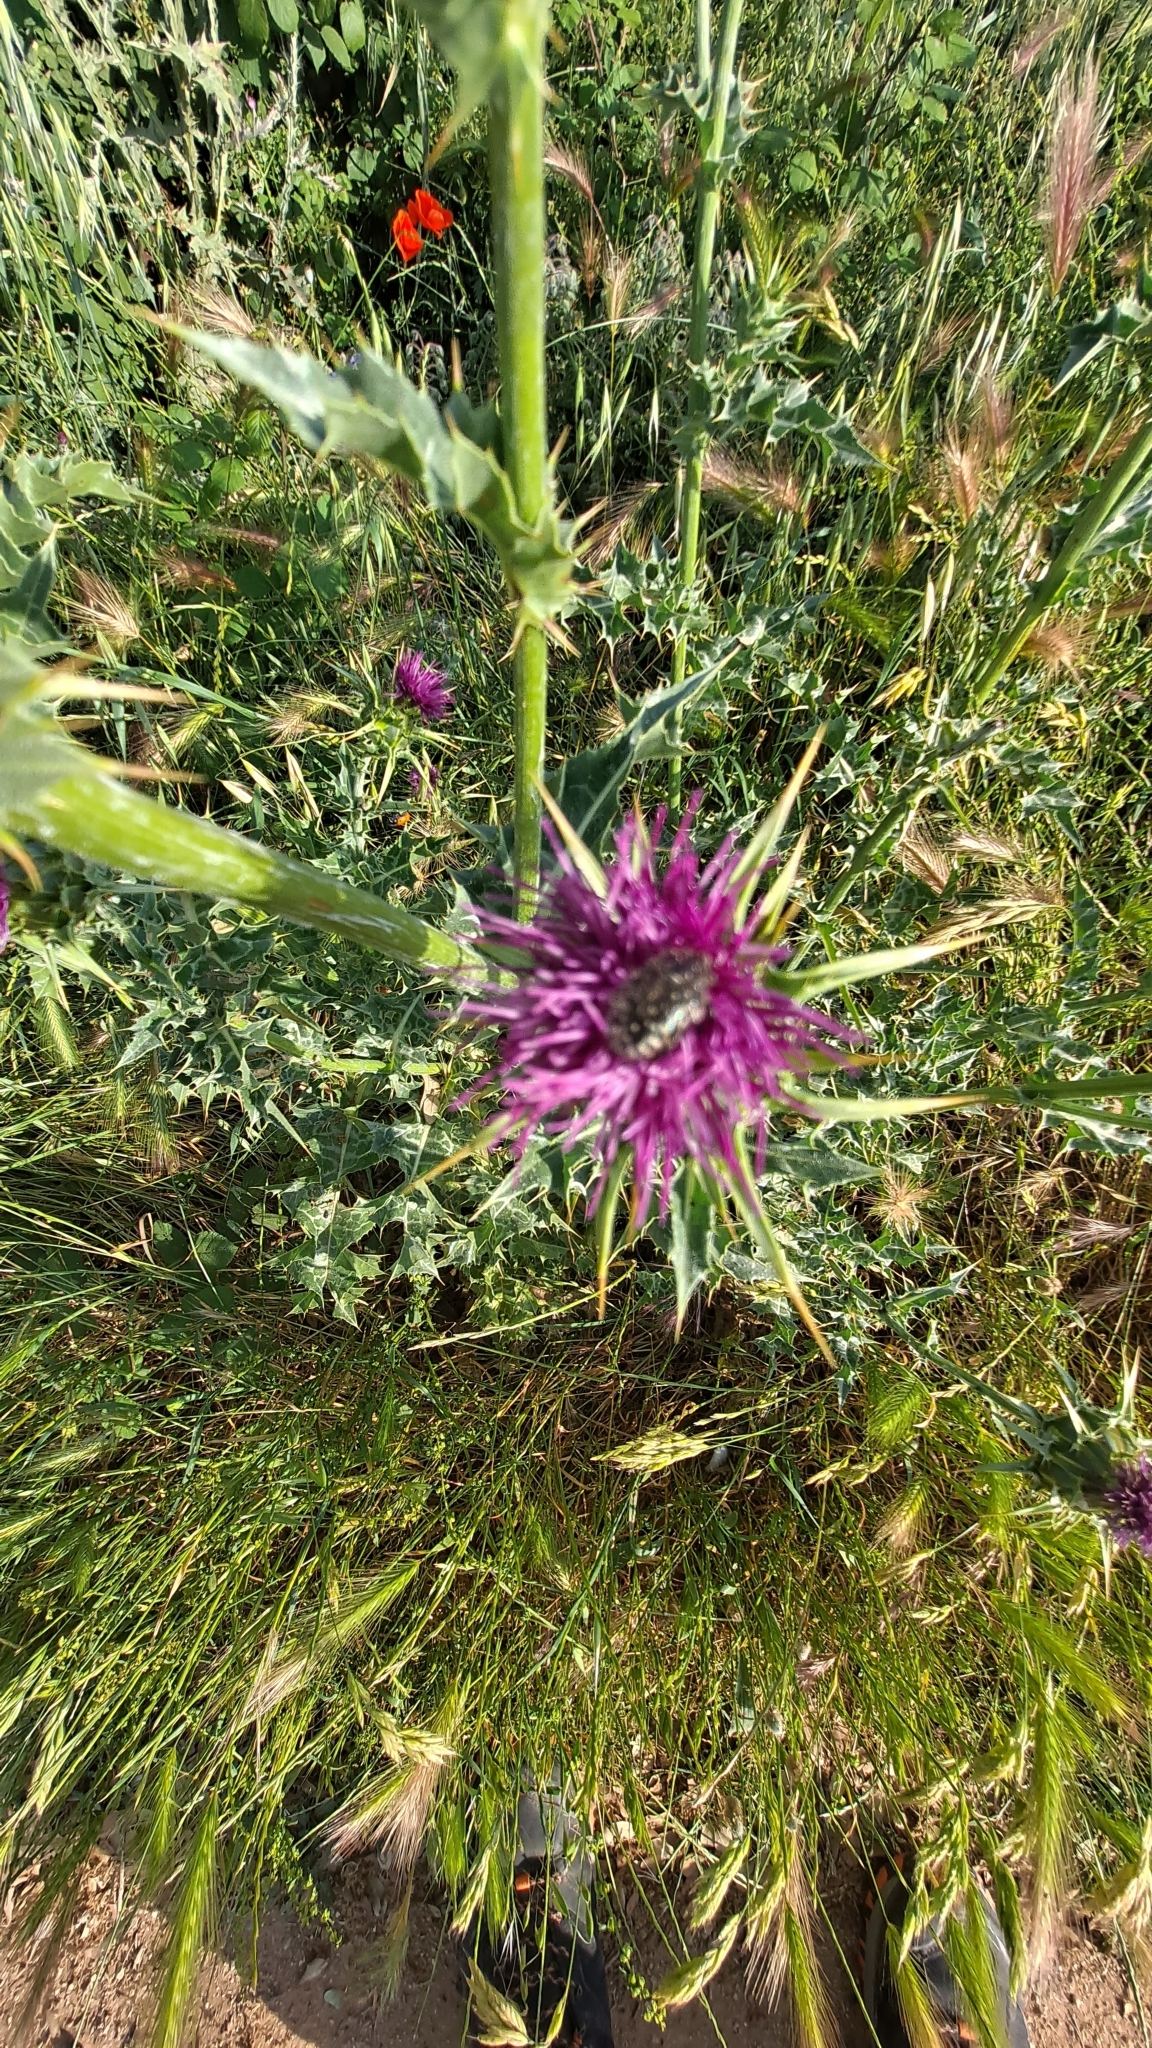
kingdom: Animalia
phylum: Arthropoda
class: Insecta
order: Coleoptera
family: Scarabaeidae
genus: Oxythyrea
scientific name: Oxythyrea funesta
